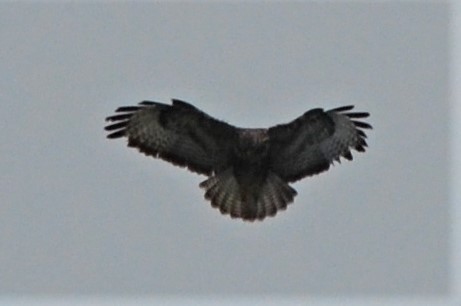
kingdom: Animalia
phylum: Chordata
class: Aves
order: Accipitriformes
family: Accipitridae
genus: Buteo
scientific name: Buteo buteo
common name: Common buzzard
